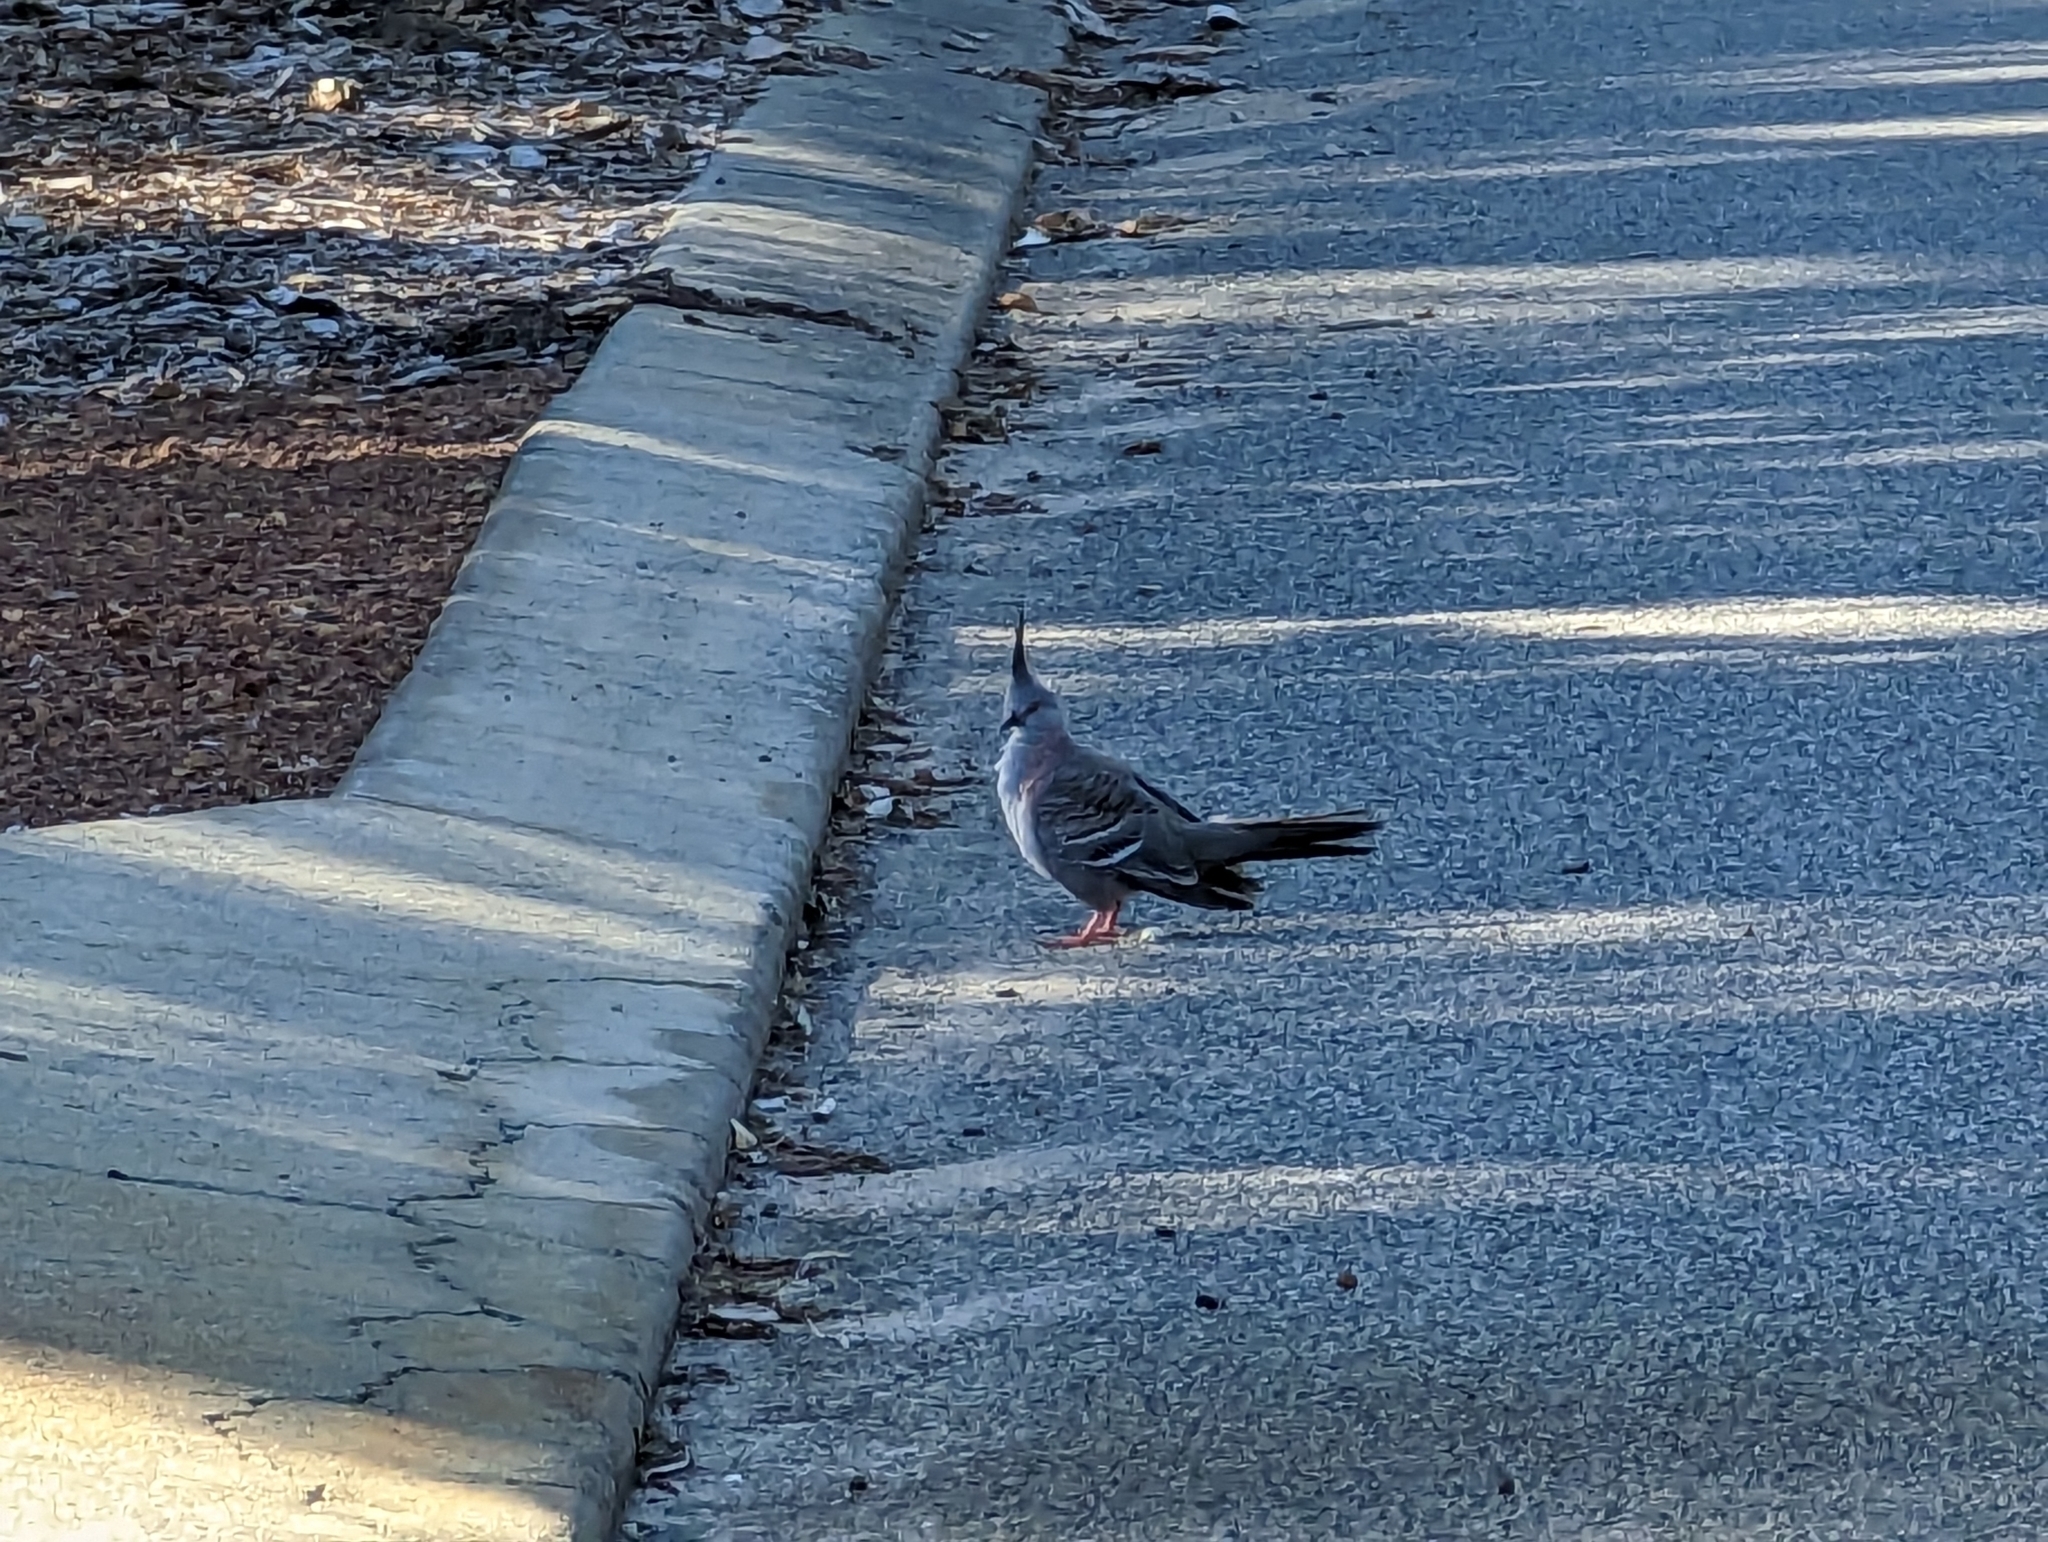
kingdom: Animalia
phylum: Chordata
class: Aves
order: Columbiformes
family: Columbidae
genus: Ocyphaps
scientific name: Ocyphaps lophotes
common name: Crested pigeon
